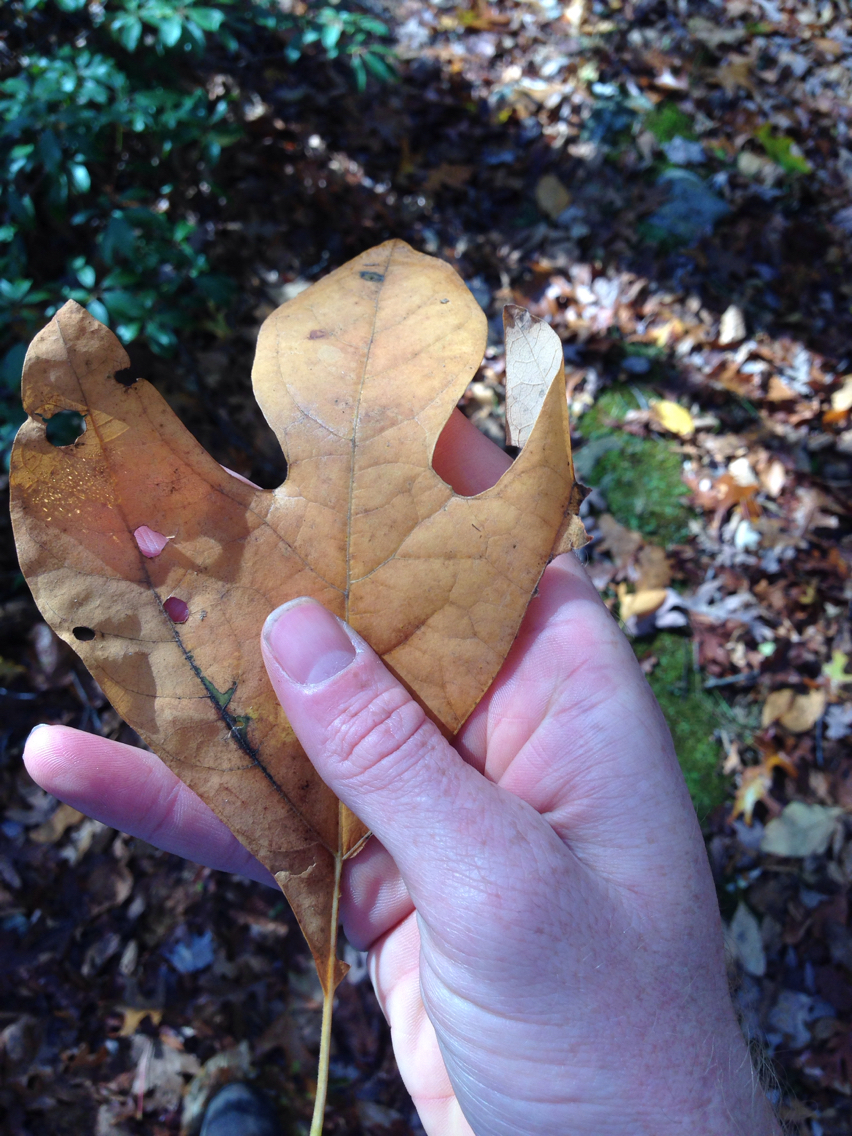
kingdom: Plantae
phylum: Tracheophyta
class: Magnoliopsida
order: Laurales
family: Lauraceae
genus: Sassafras
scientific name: Sassafras albidum
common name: Sassafras
